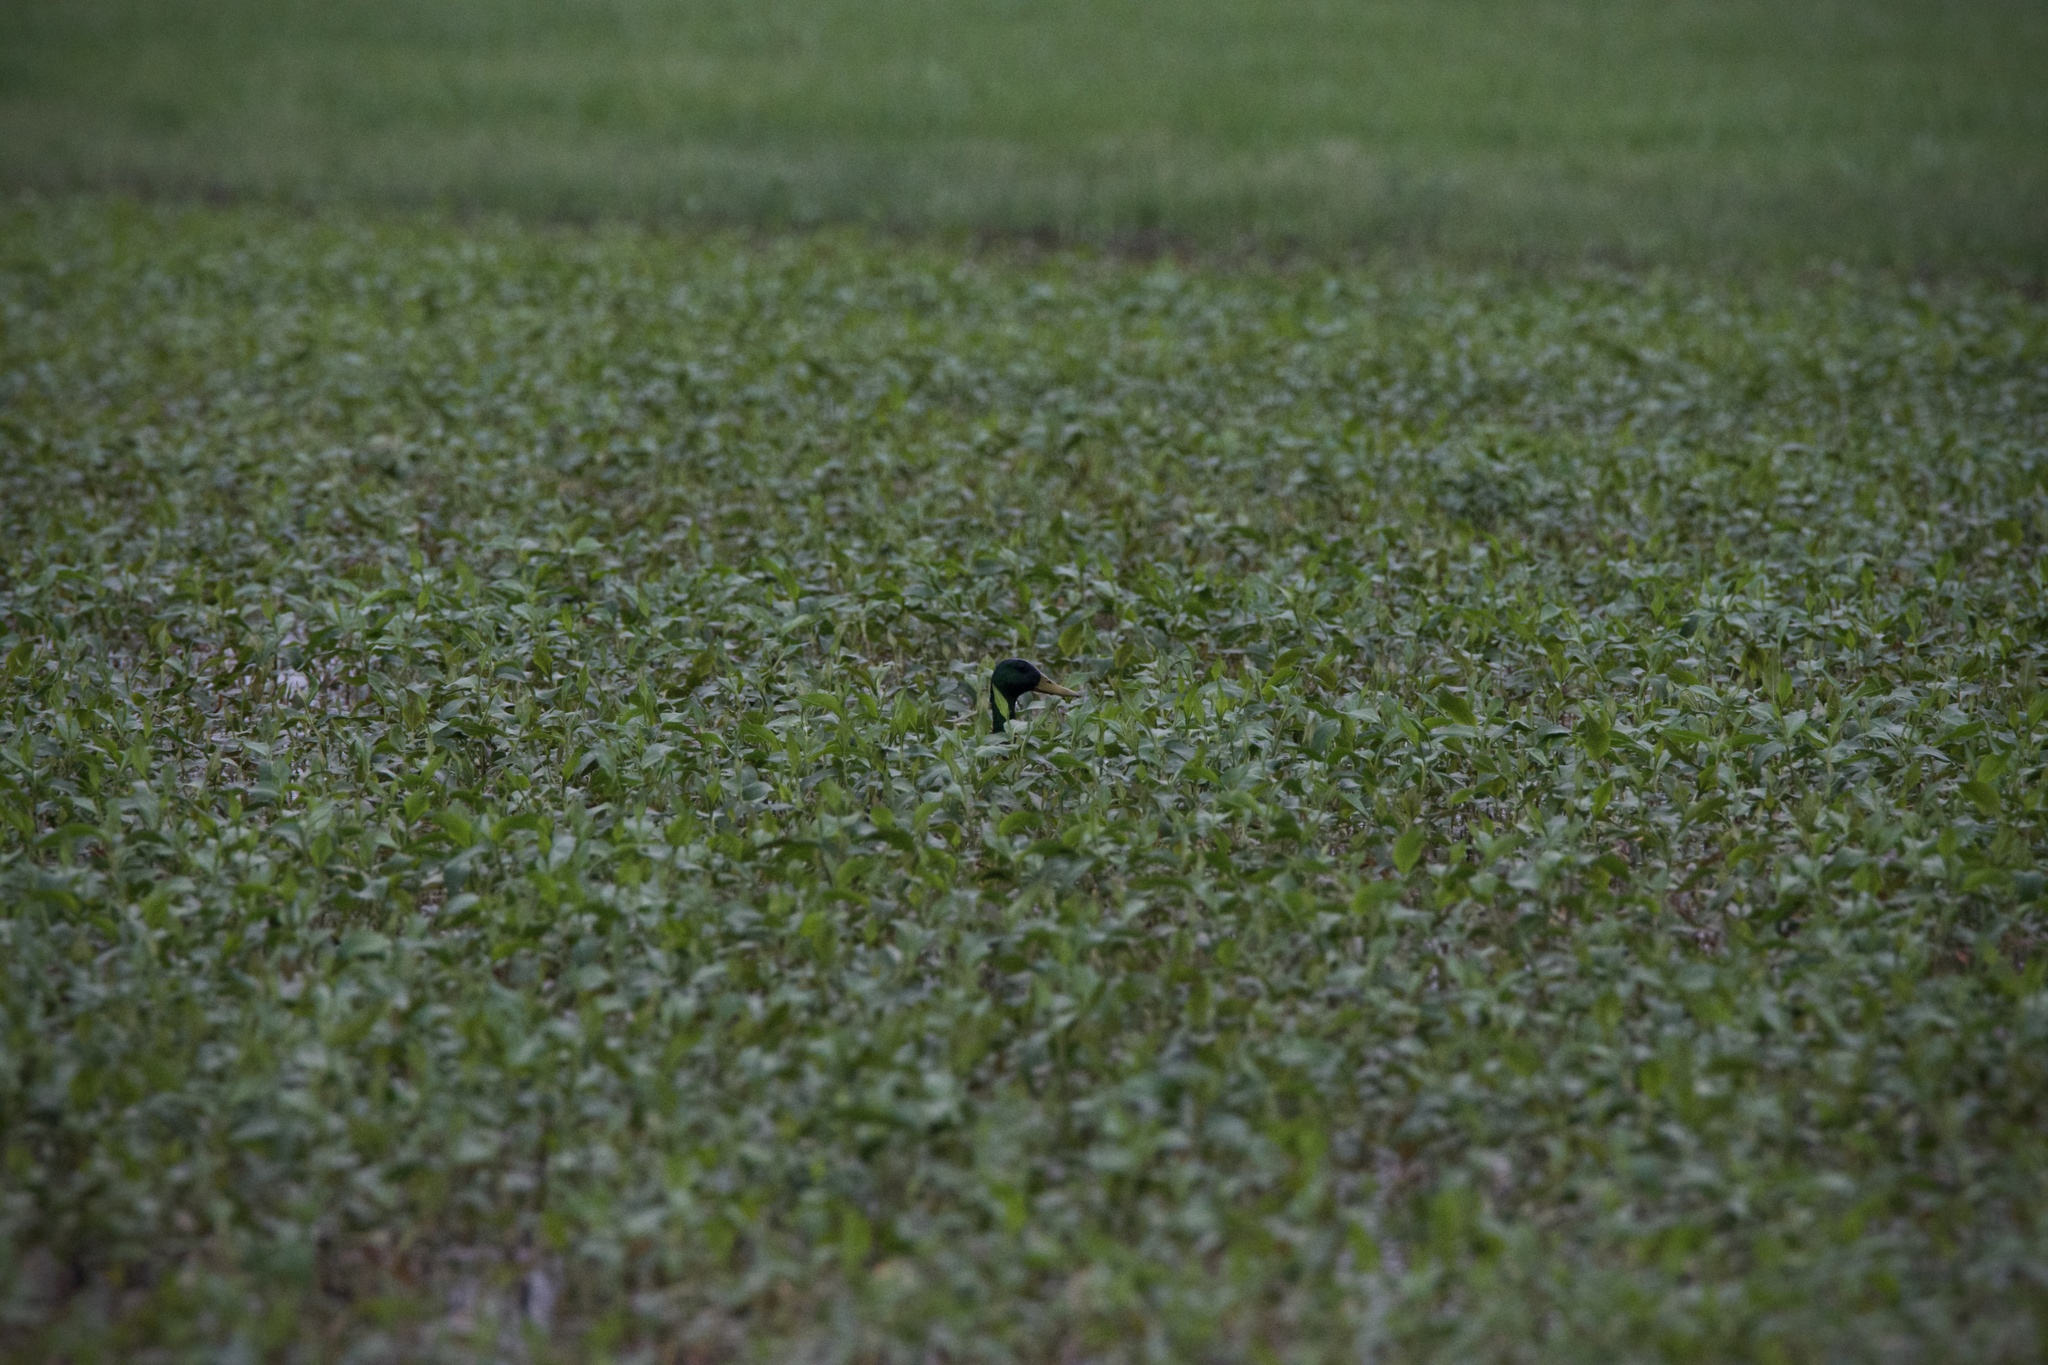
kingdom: Animalia
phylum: Chordata
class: Aves
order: Anseriformes
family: Anatidae
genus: Anas
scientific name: Anas platyrhynchos
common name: Mallard
